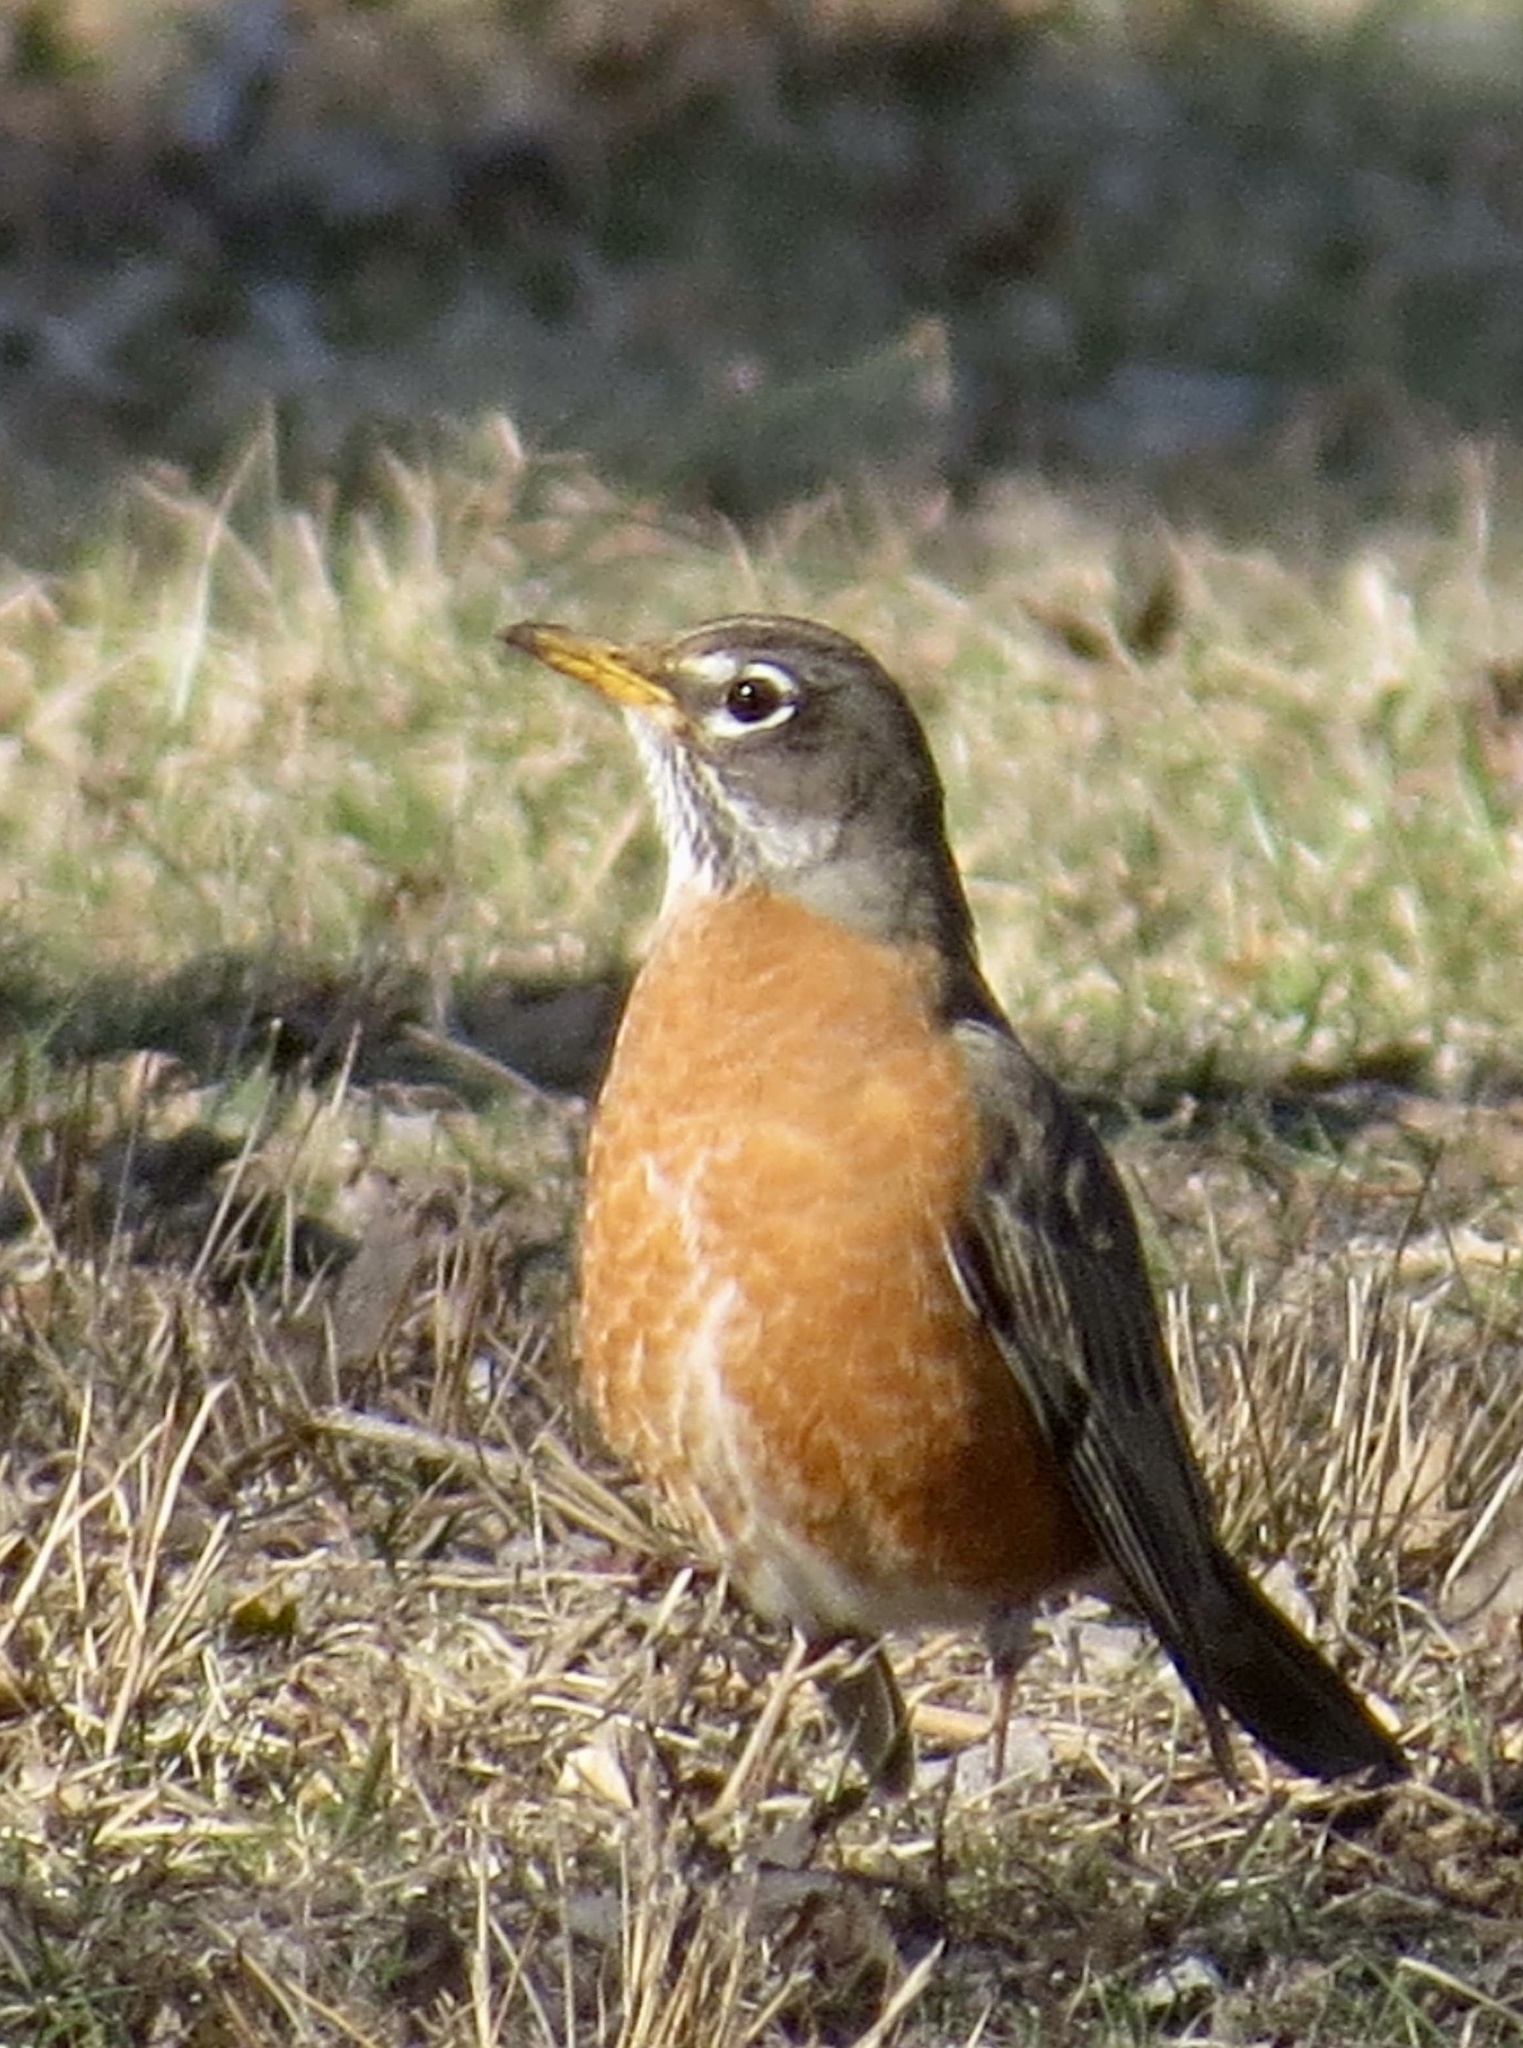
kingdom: Animalia
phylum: Chordata
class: Aves
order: Passeriformes
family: Turdidae
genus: Turdus
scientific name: Turdus migratorius
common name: American robin
